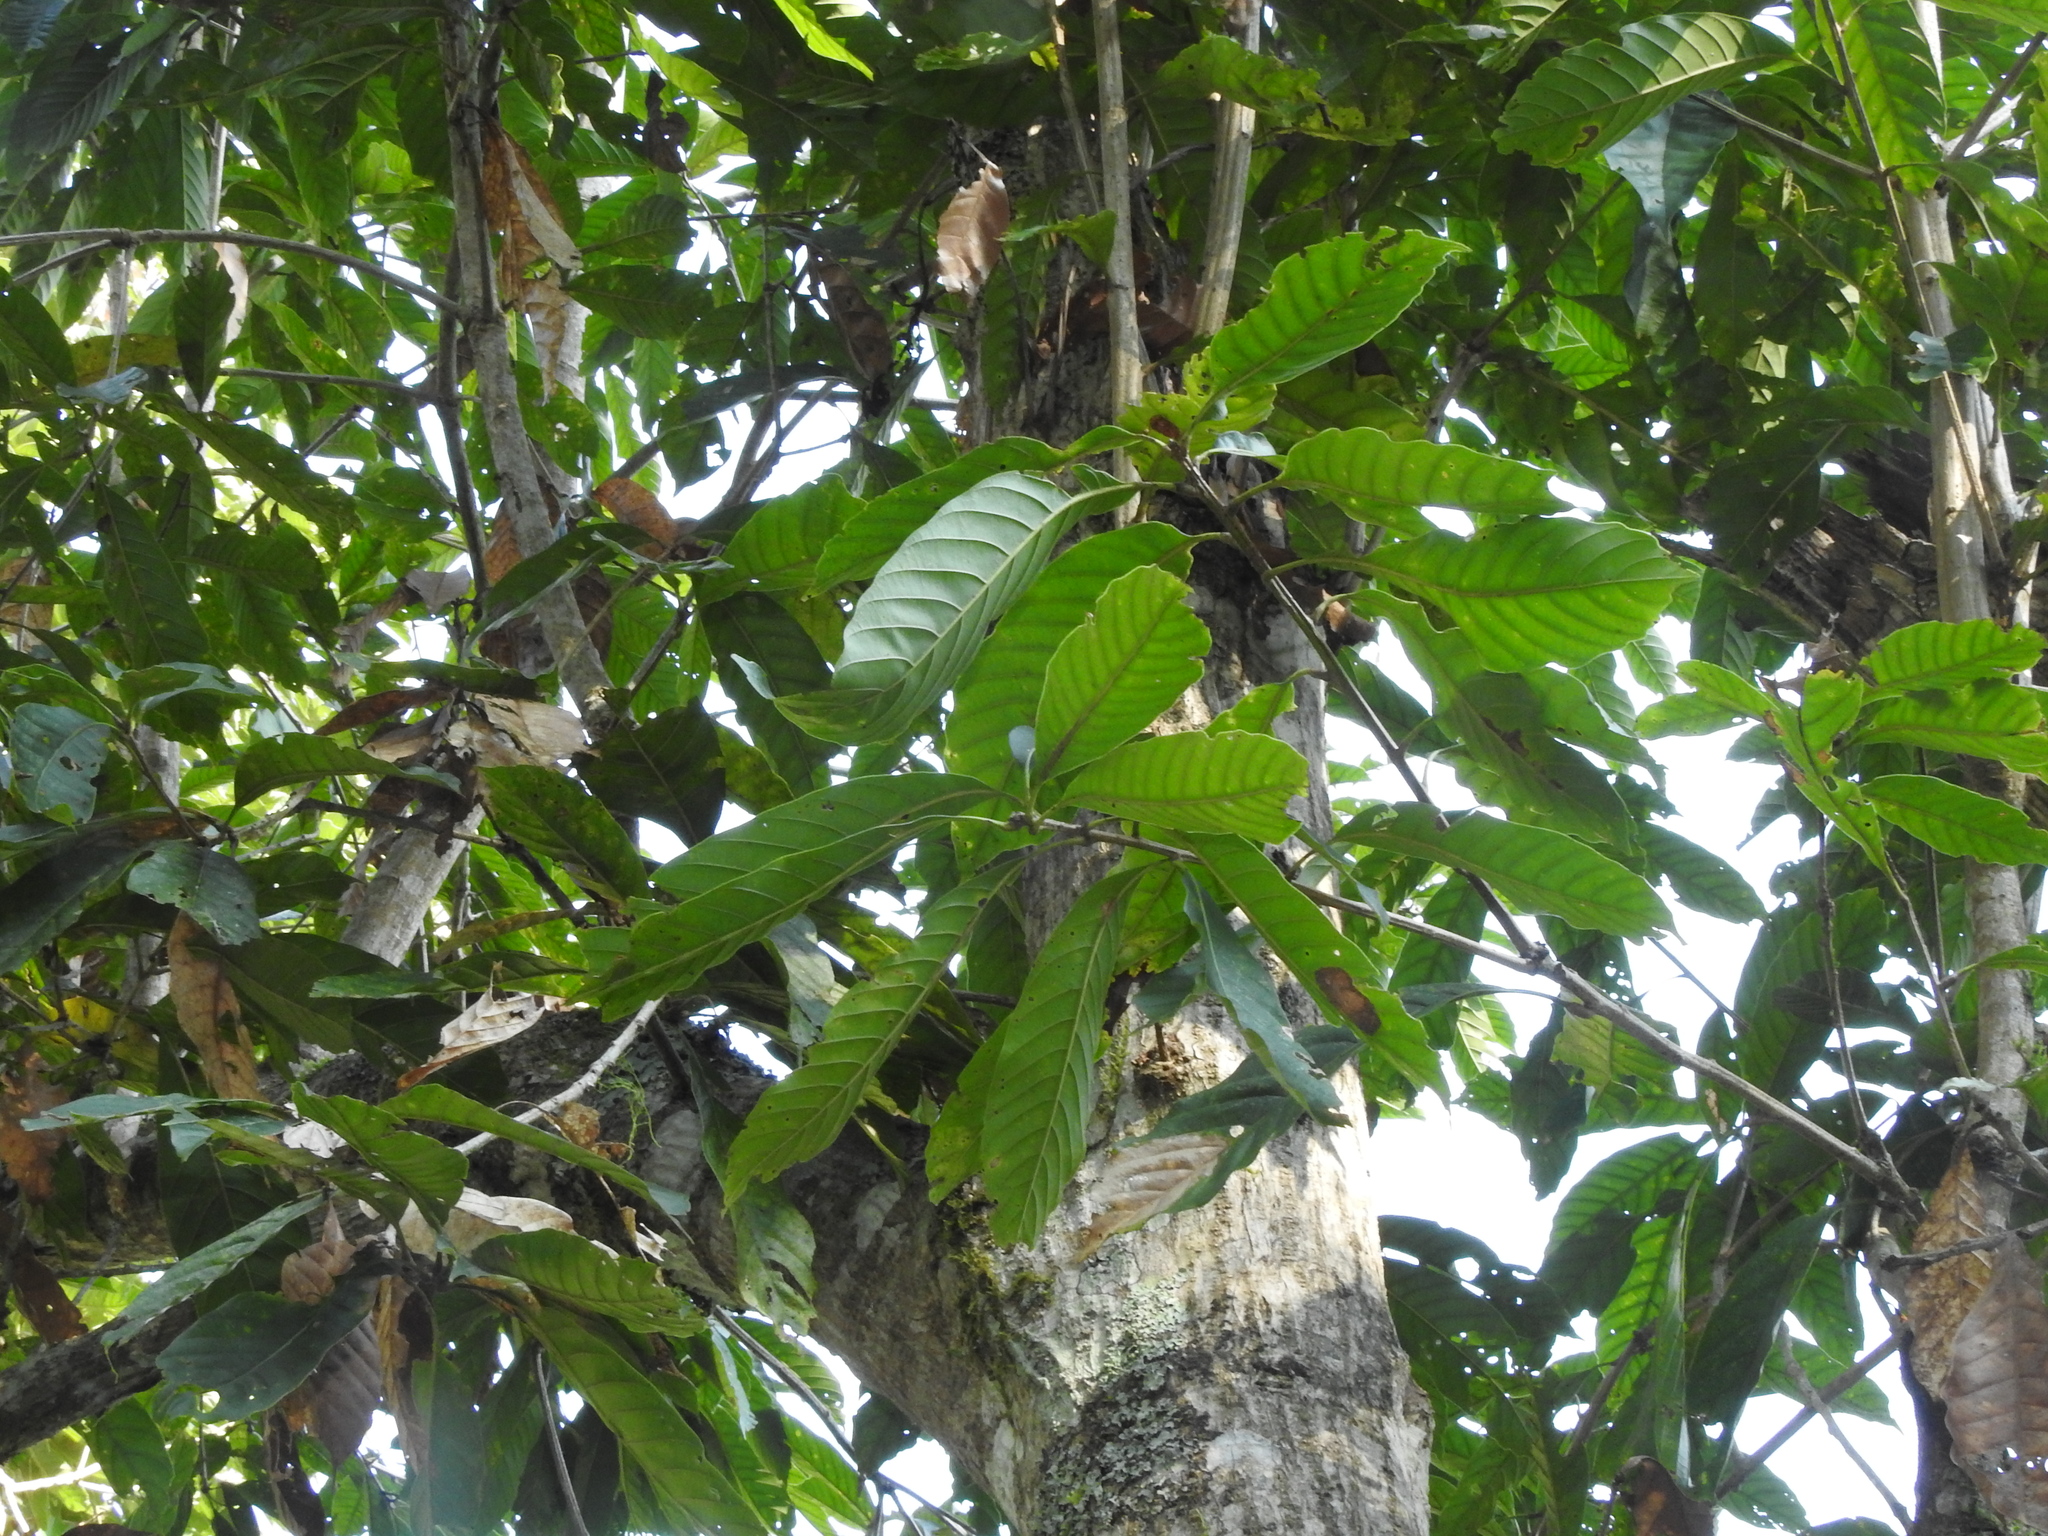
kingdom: Plantae
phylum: Tracheophyta
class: Magnoliopsida
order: Fagales
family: Fagaceae
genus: Lithocarpus
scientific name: Lithocarpus kawakamii
